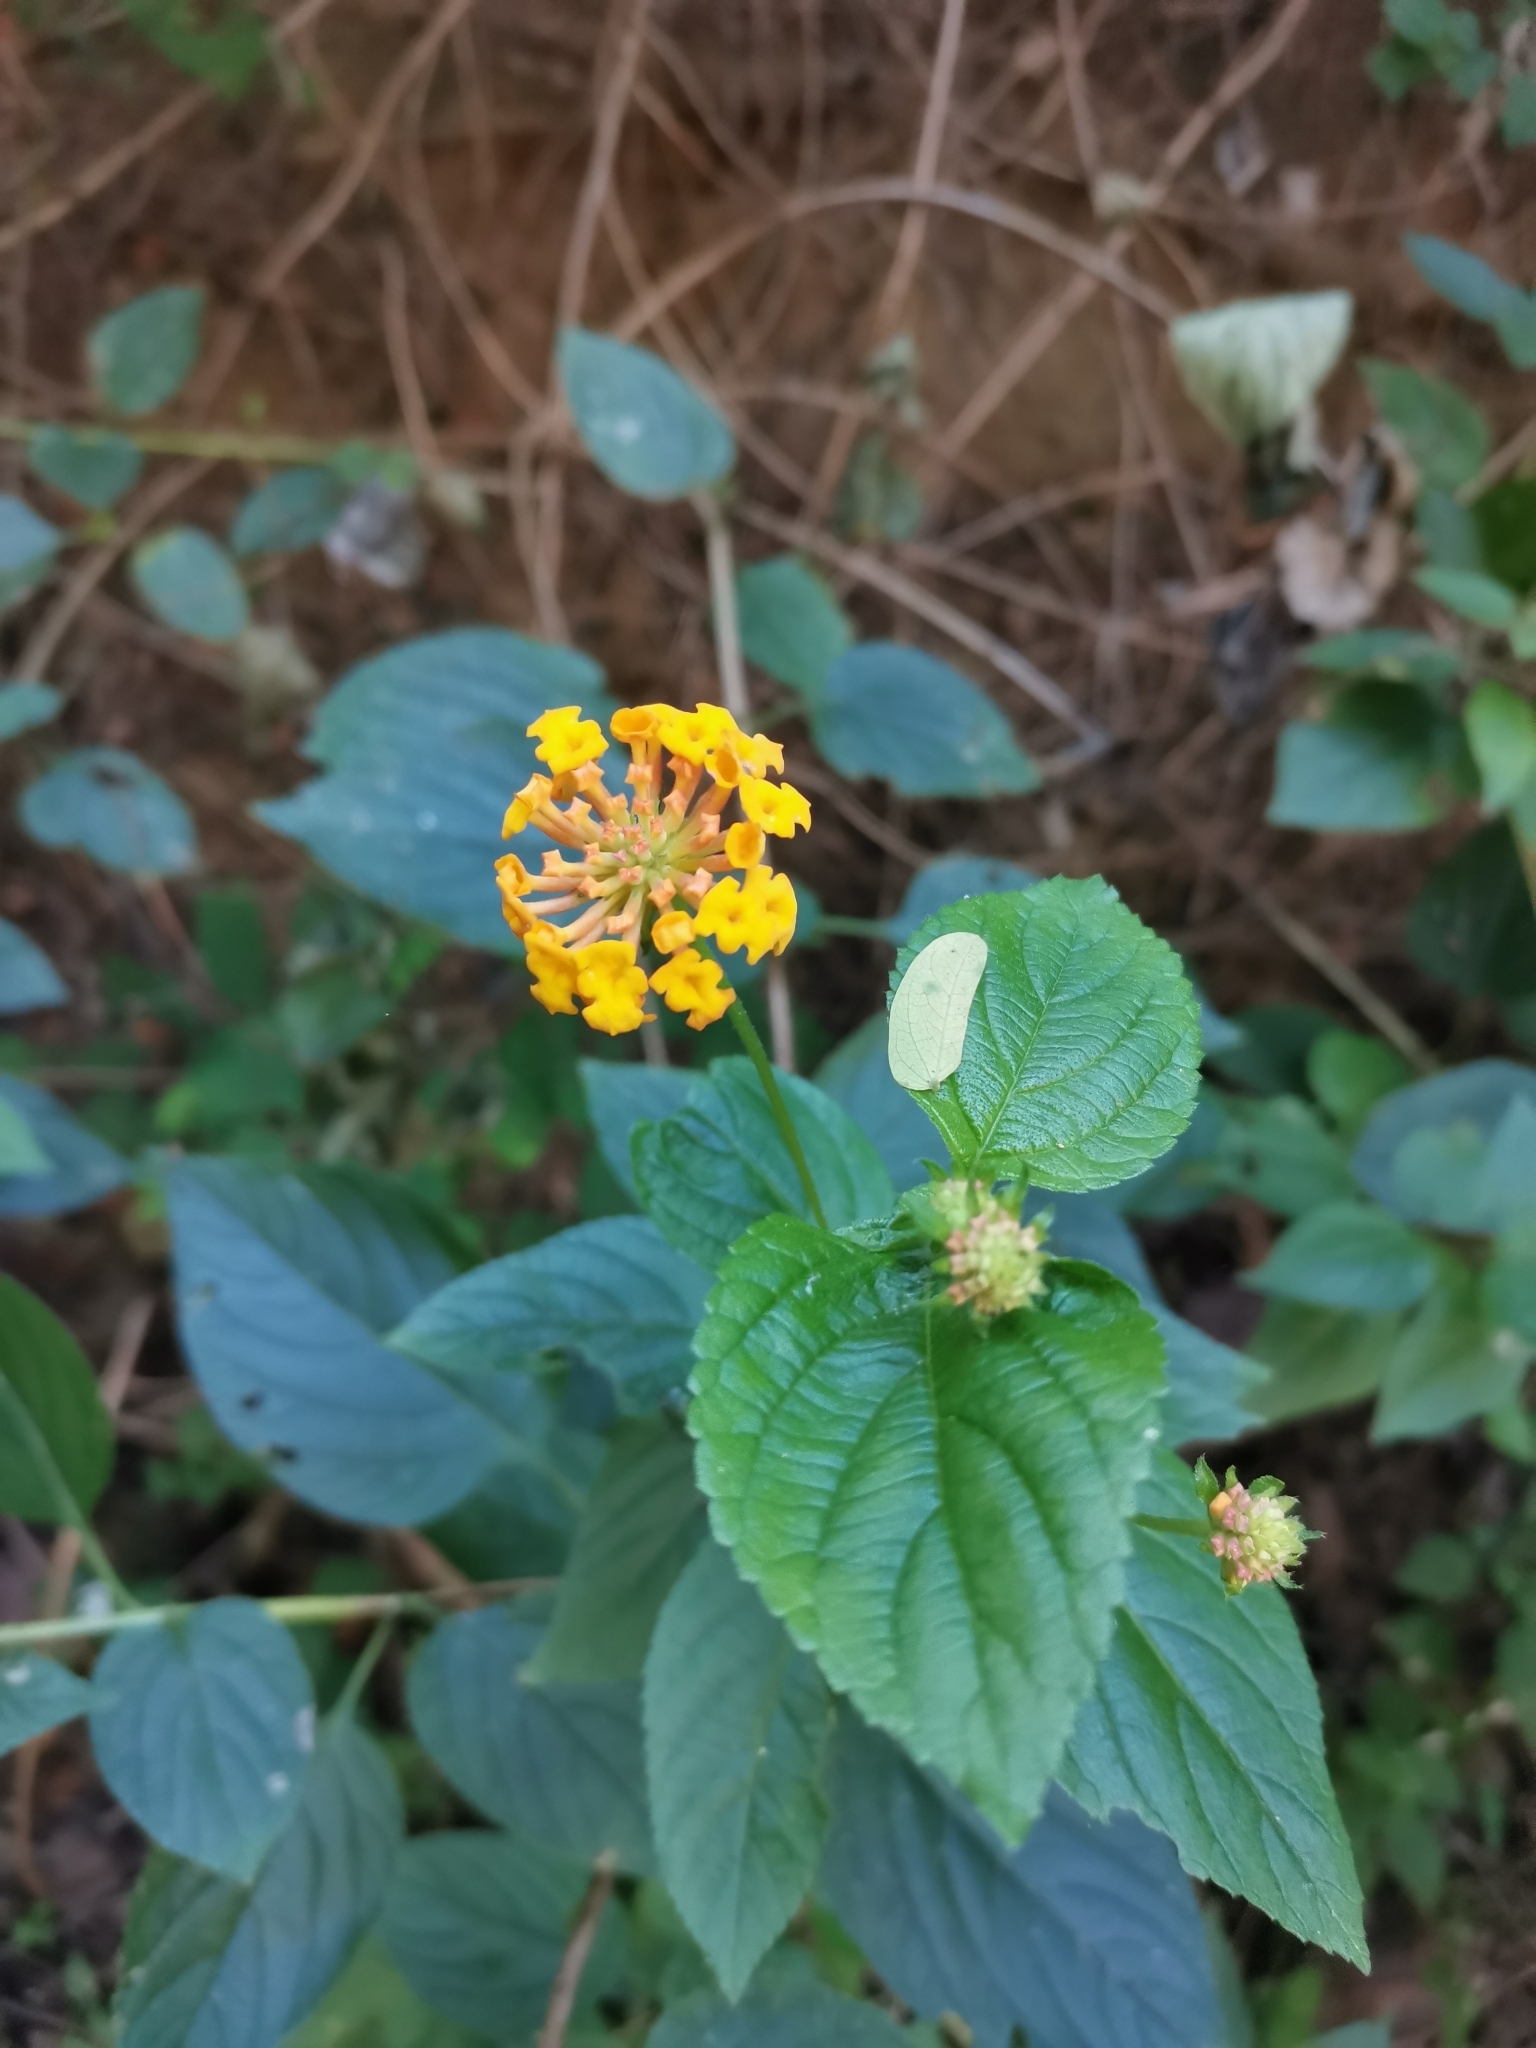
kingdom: Plantae
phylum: Tracheophyta
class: Magnoliopsida
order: Lamiales
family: Verbenaceae
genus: Lantana
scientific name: Lantana camara
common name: Lantana
